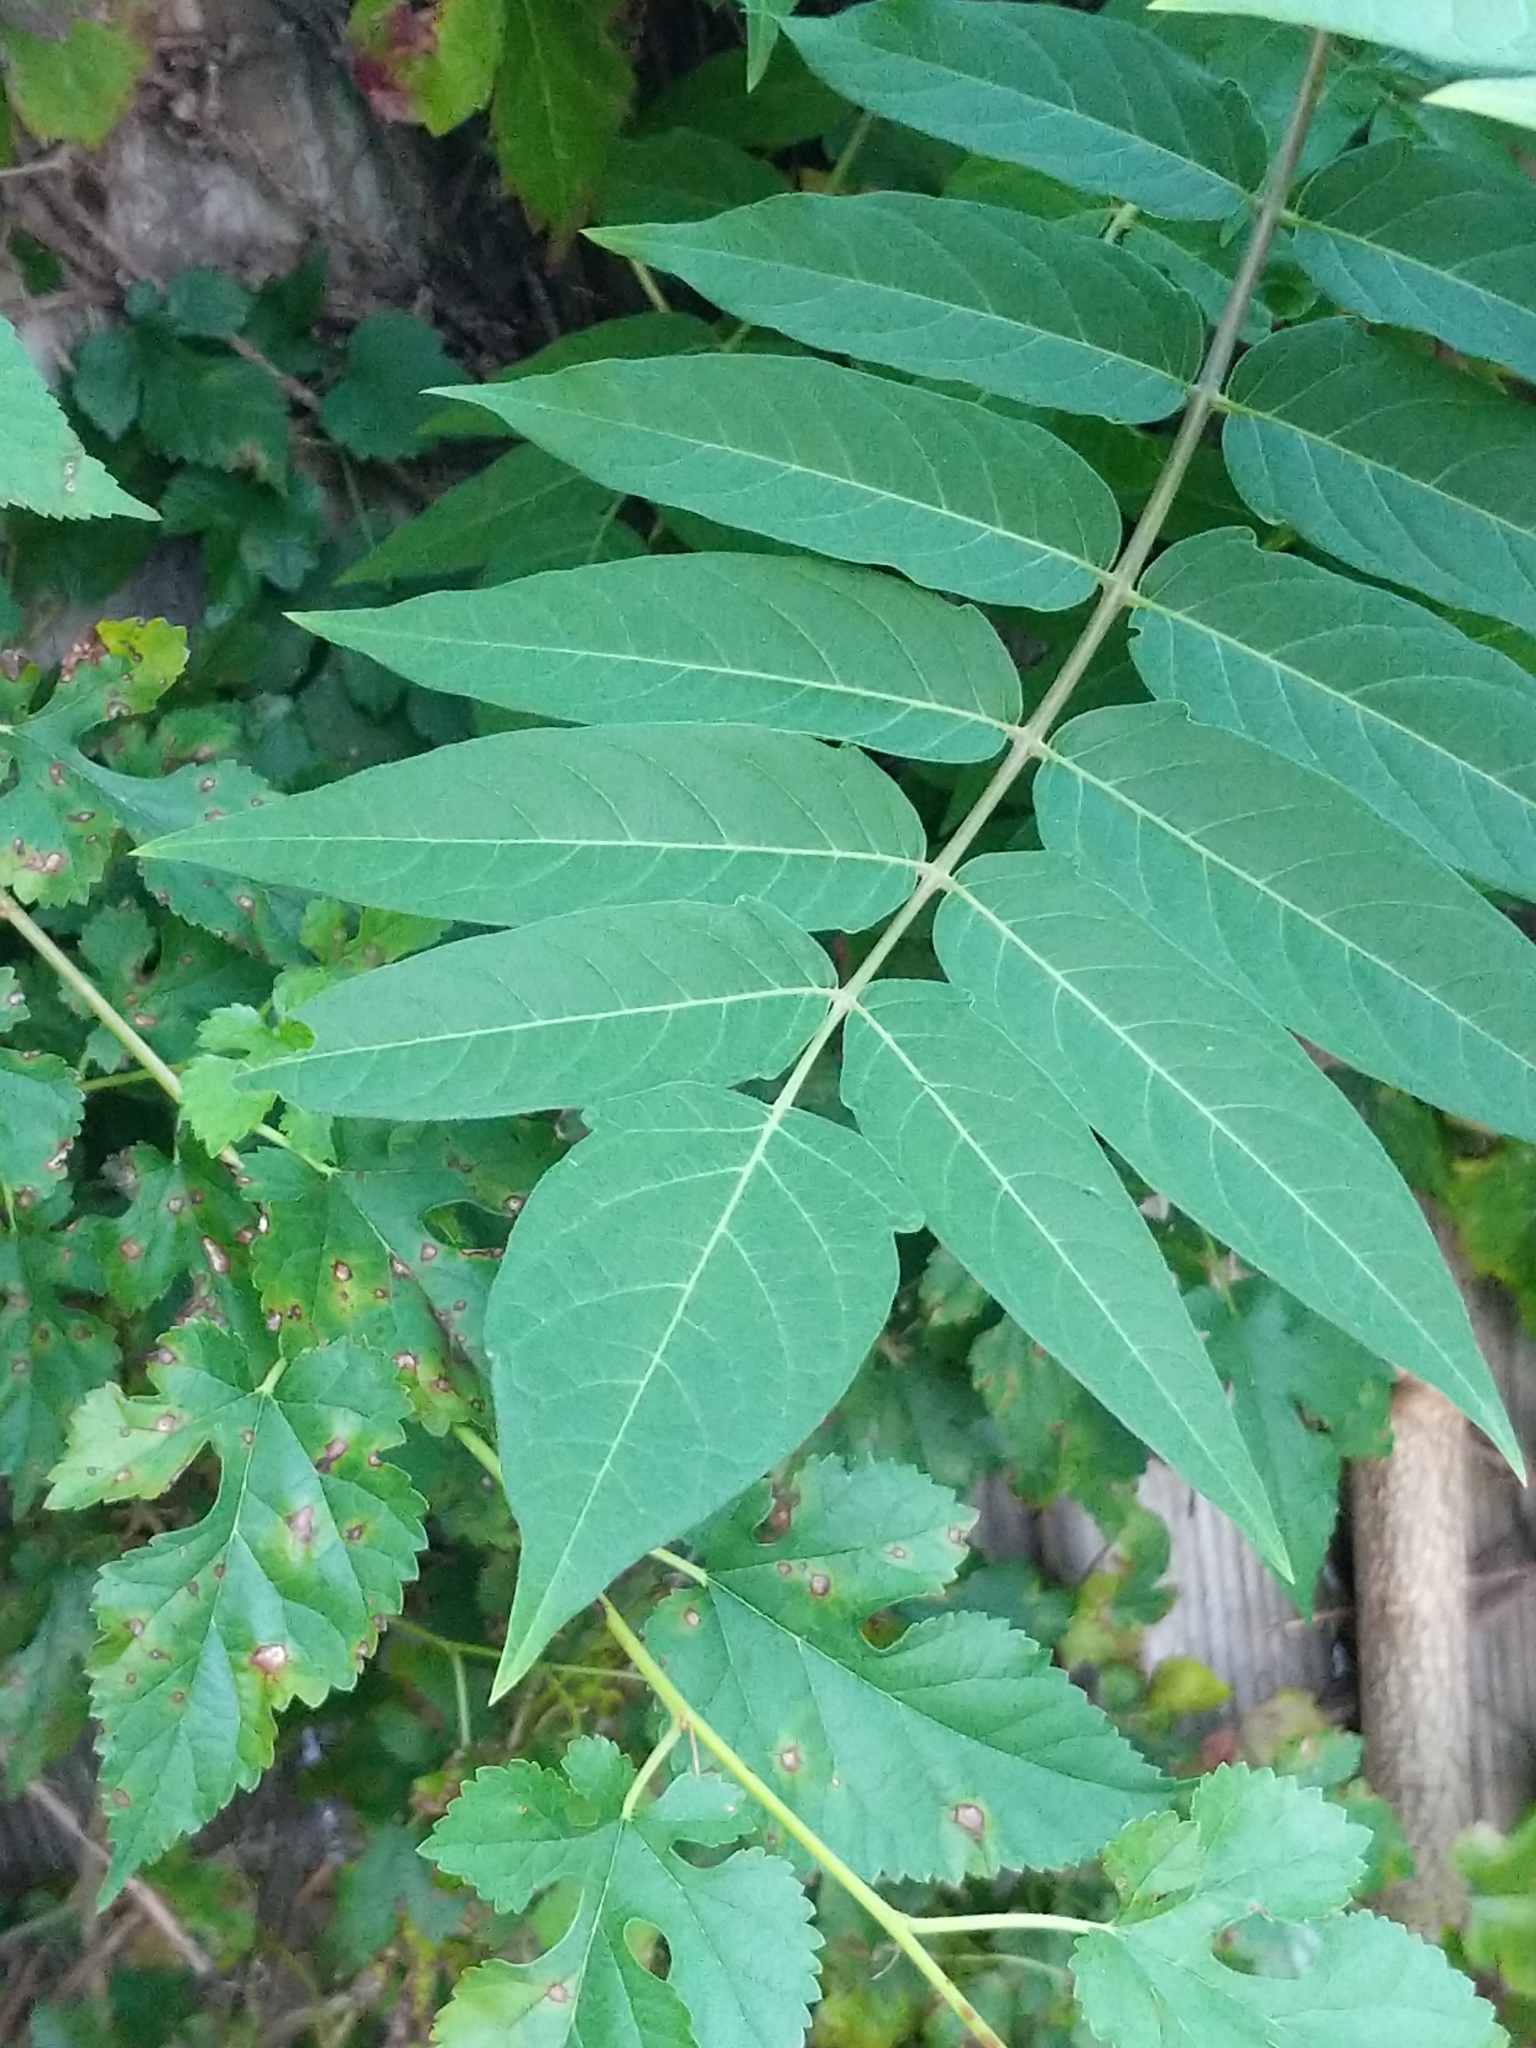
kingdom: Plantae
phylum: Tracheophyta
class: Magnoliopsida
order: Sapindales
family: Simaroubaceae
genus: Ailanthus
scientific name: Ailanthus altissima
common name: Tree-of-heaven
